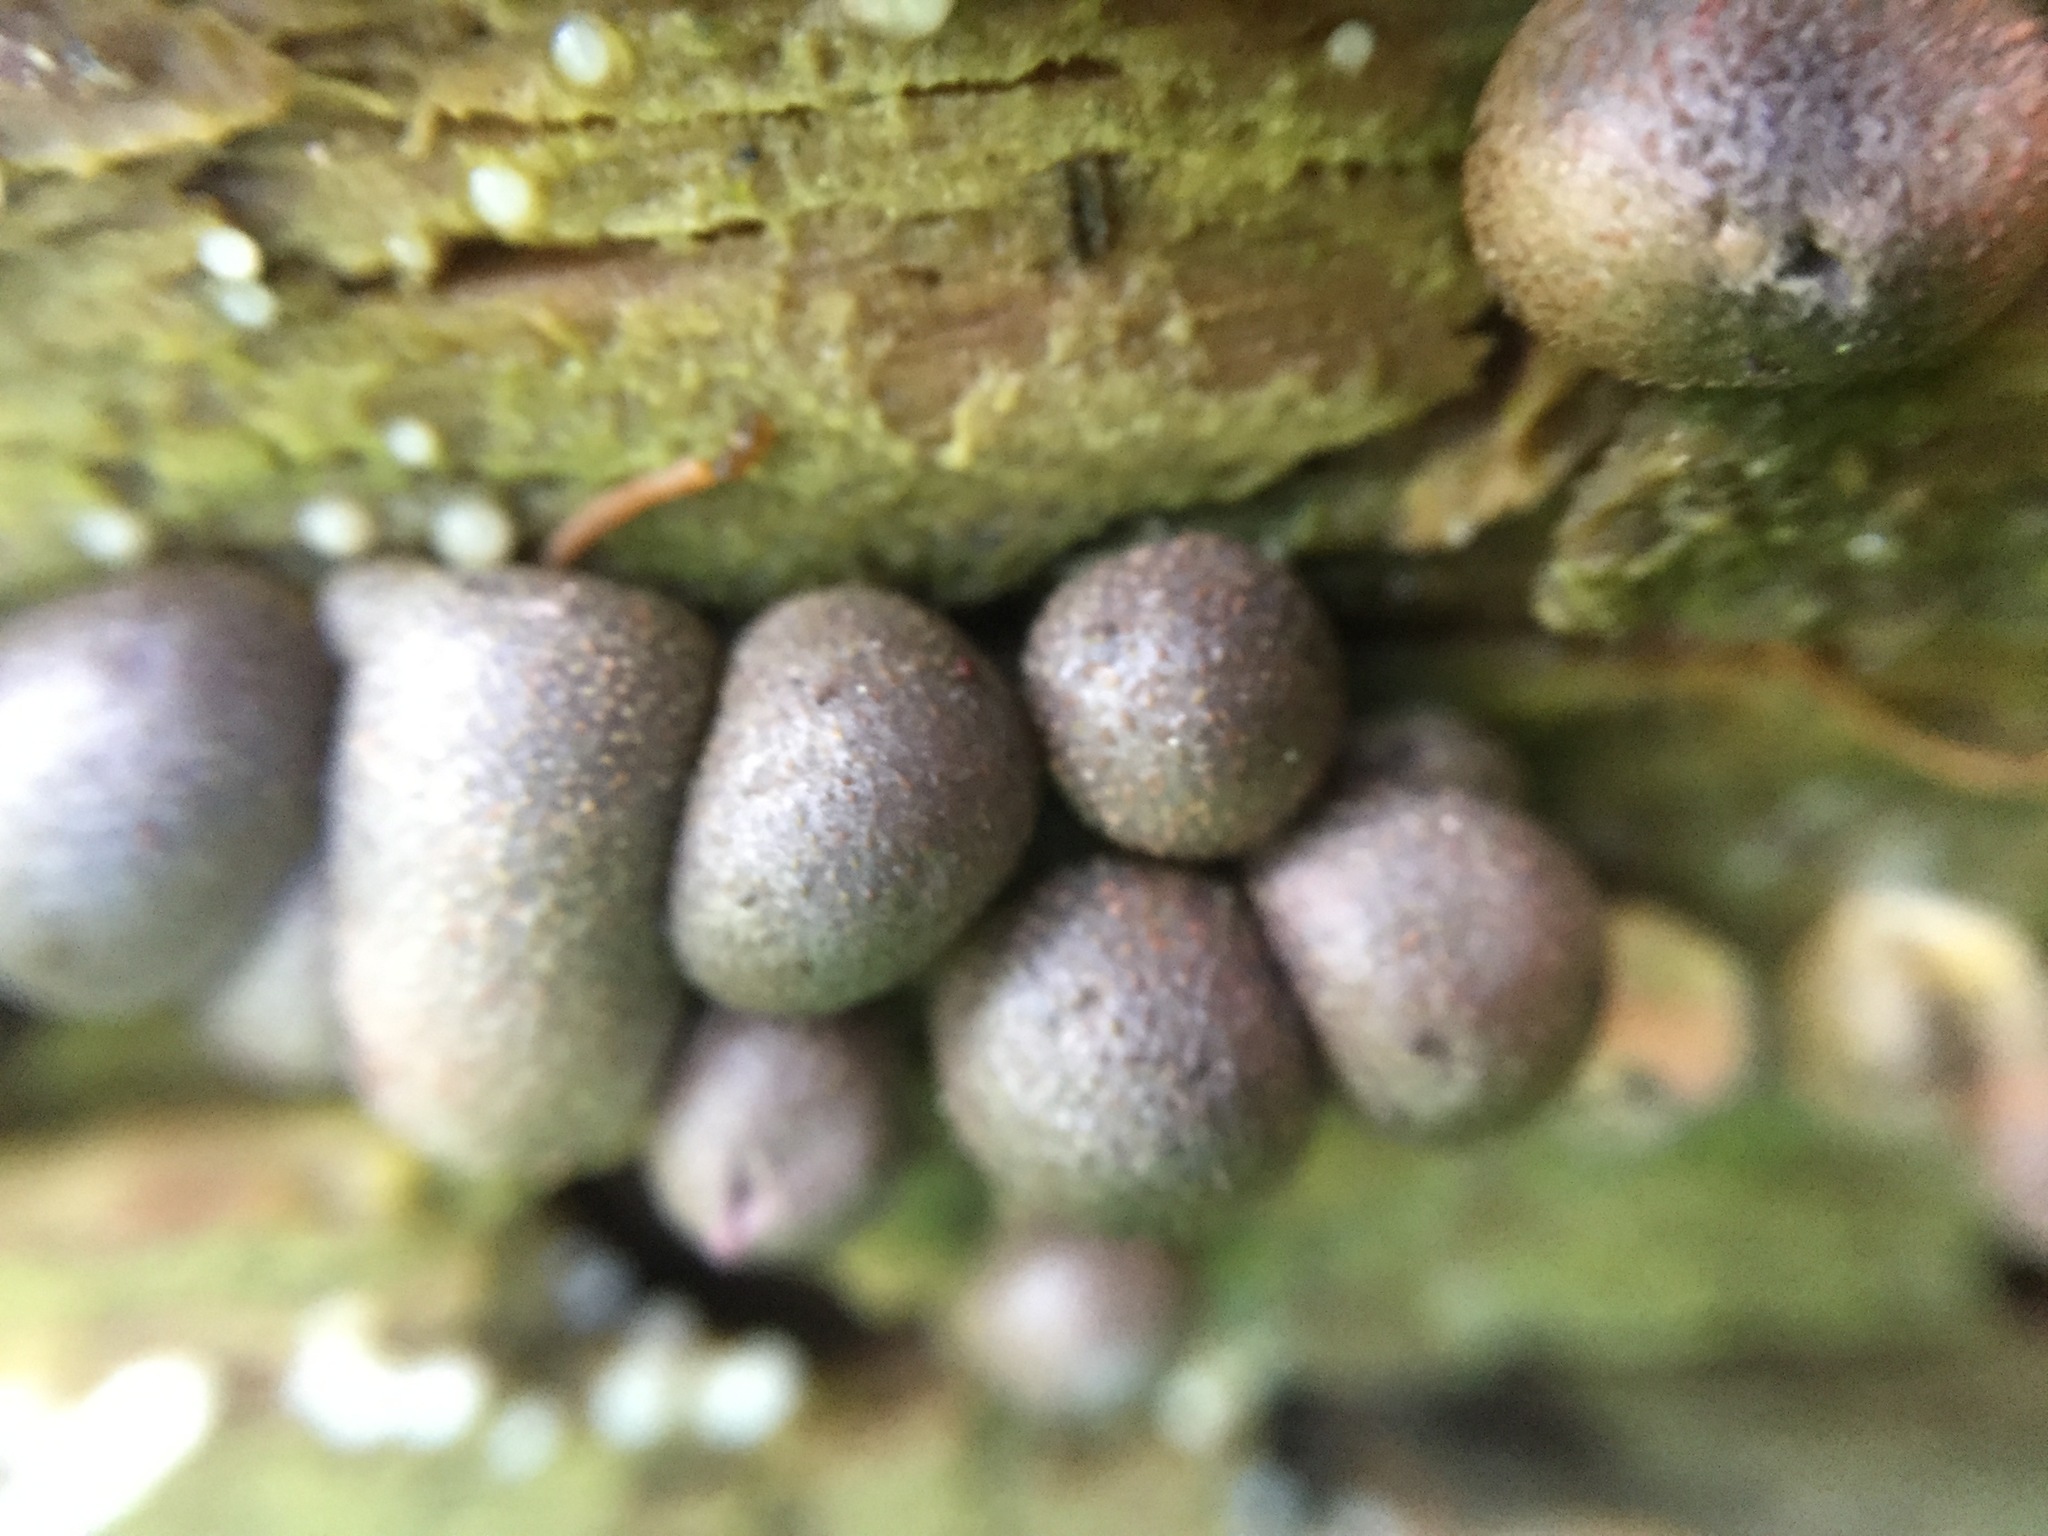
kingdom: Protozoa
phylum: Mycetozoa
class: Myxomycetes
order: Cribrariales
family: Tubiferaceae
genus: Lycogala
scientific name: Lycogala epidendrum
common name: Wolf's milk
